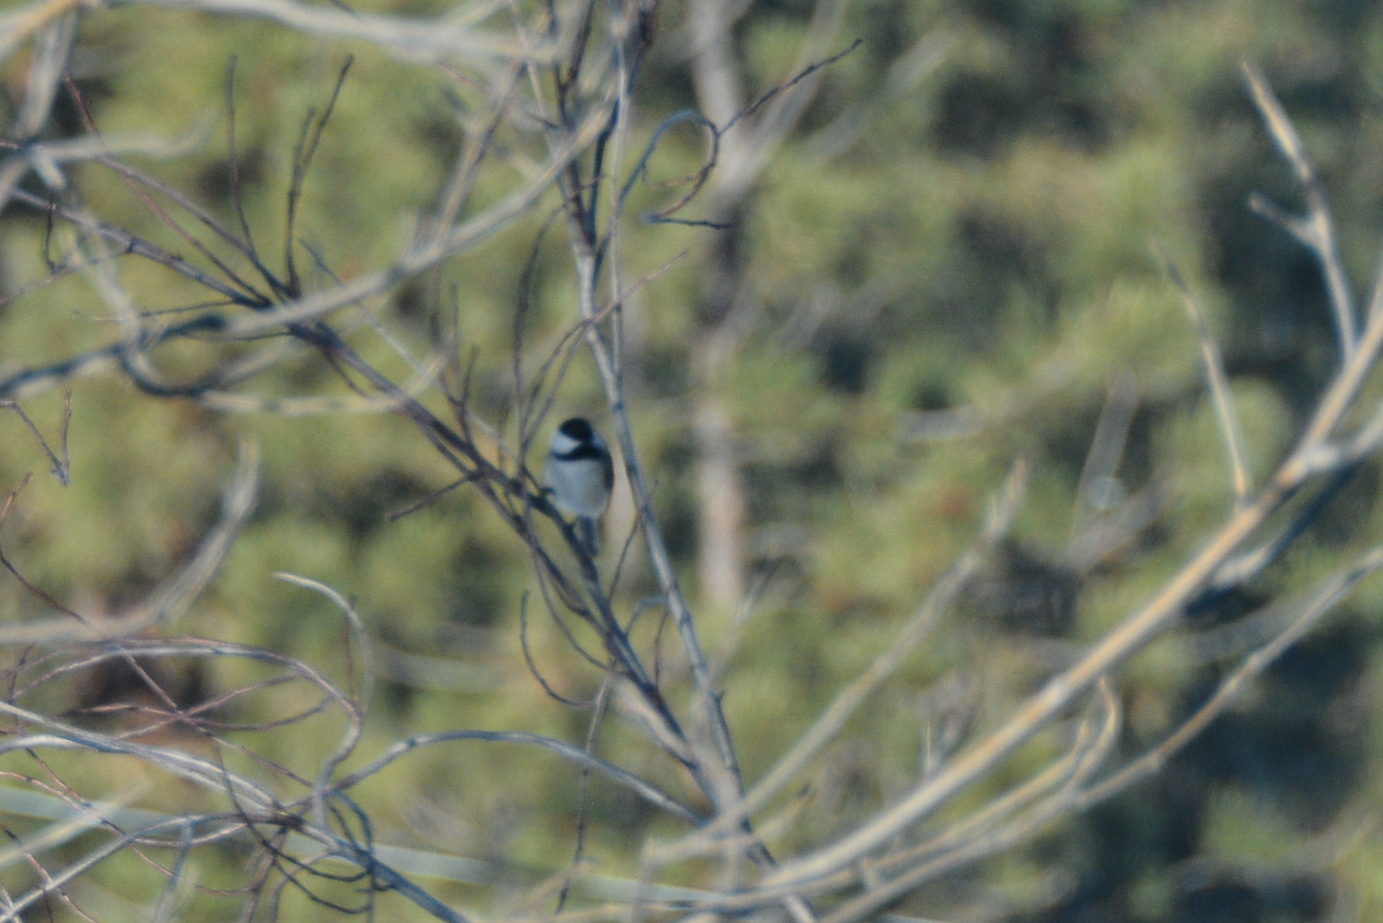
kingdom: Animalia
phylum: Chordata
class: Aves
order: Passeriformes
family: Paridae
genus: Poecile
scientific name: Poecile atricapillus
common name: Black-capped chickadee
